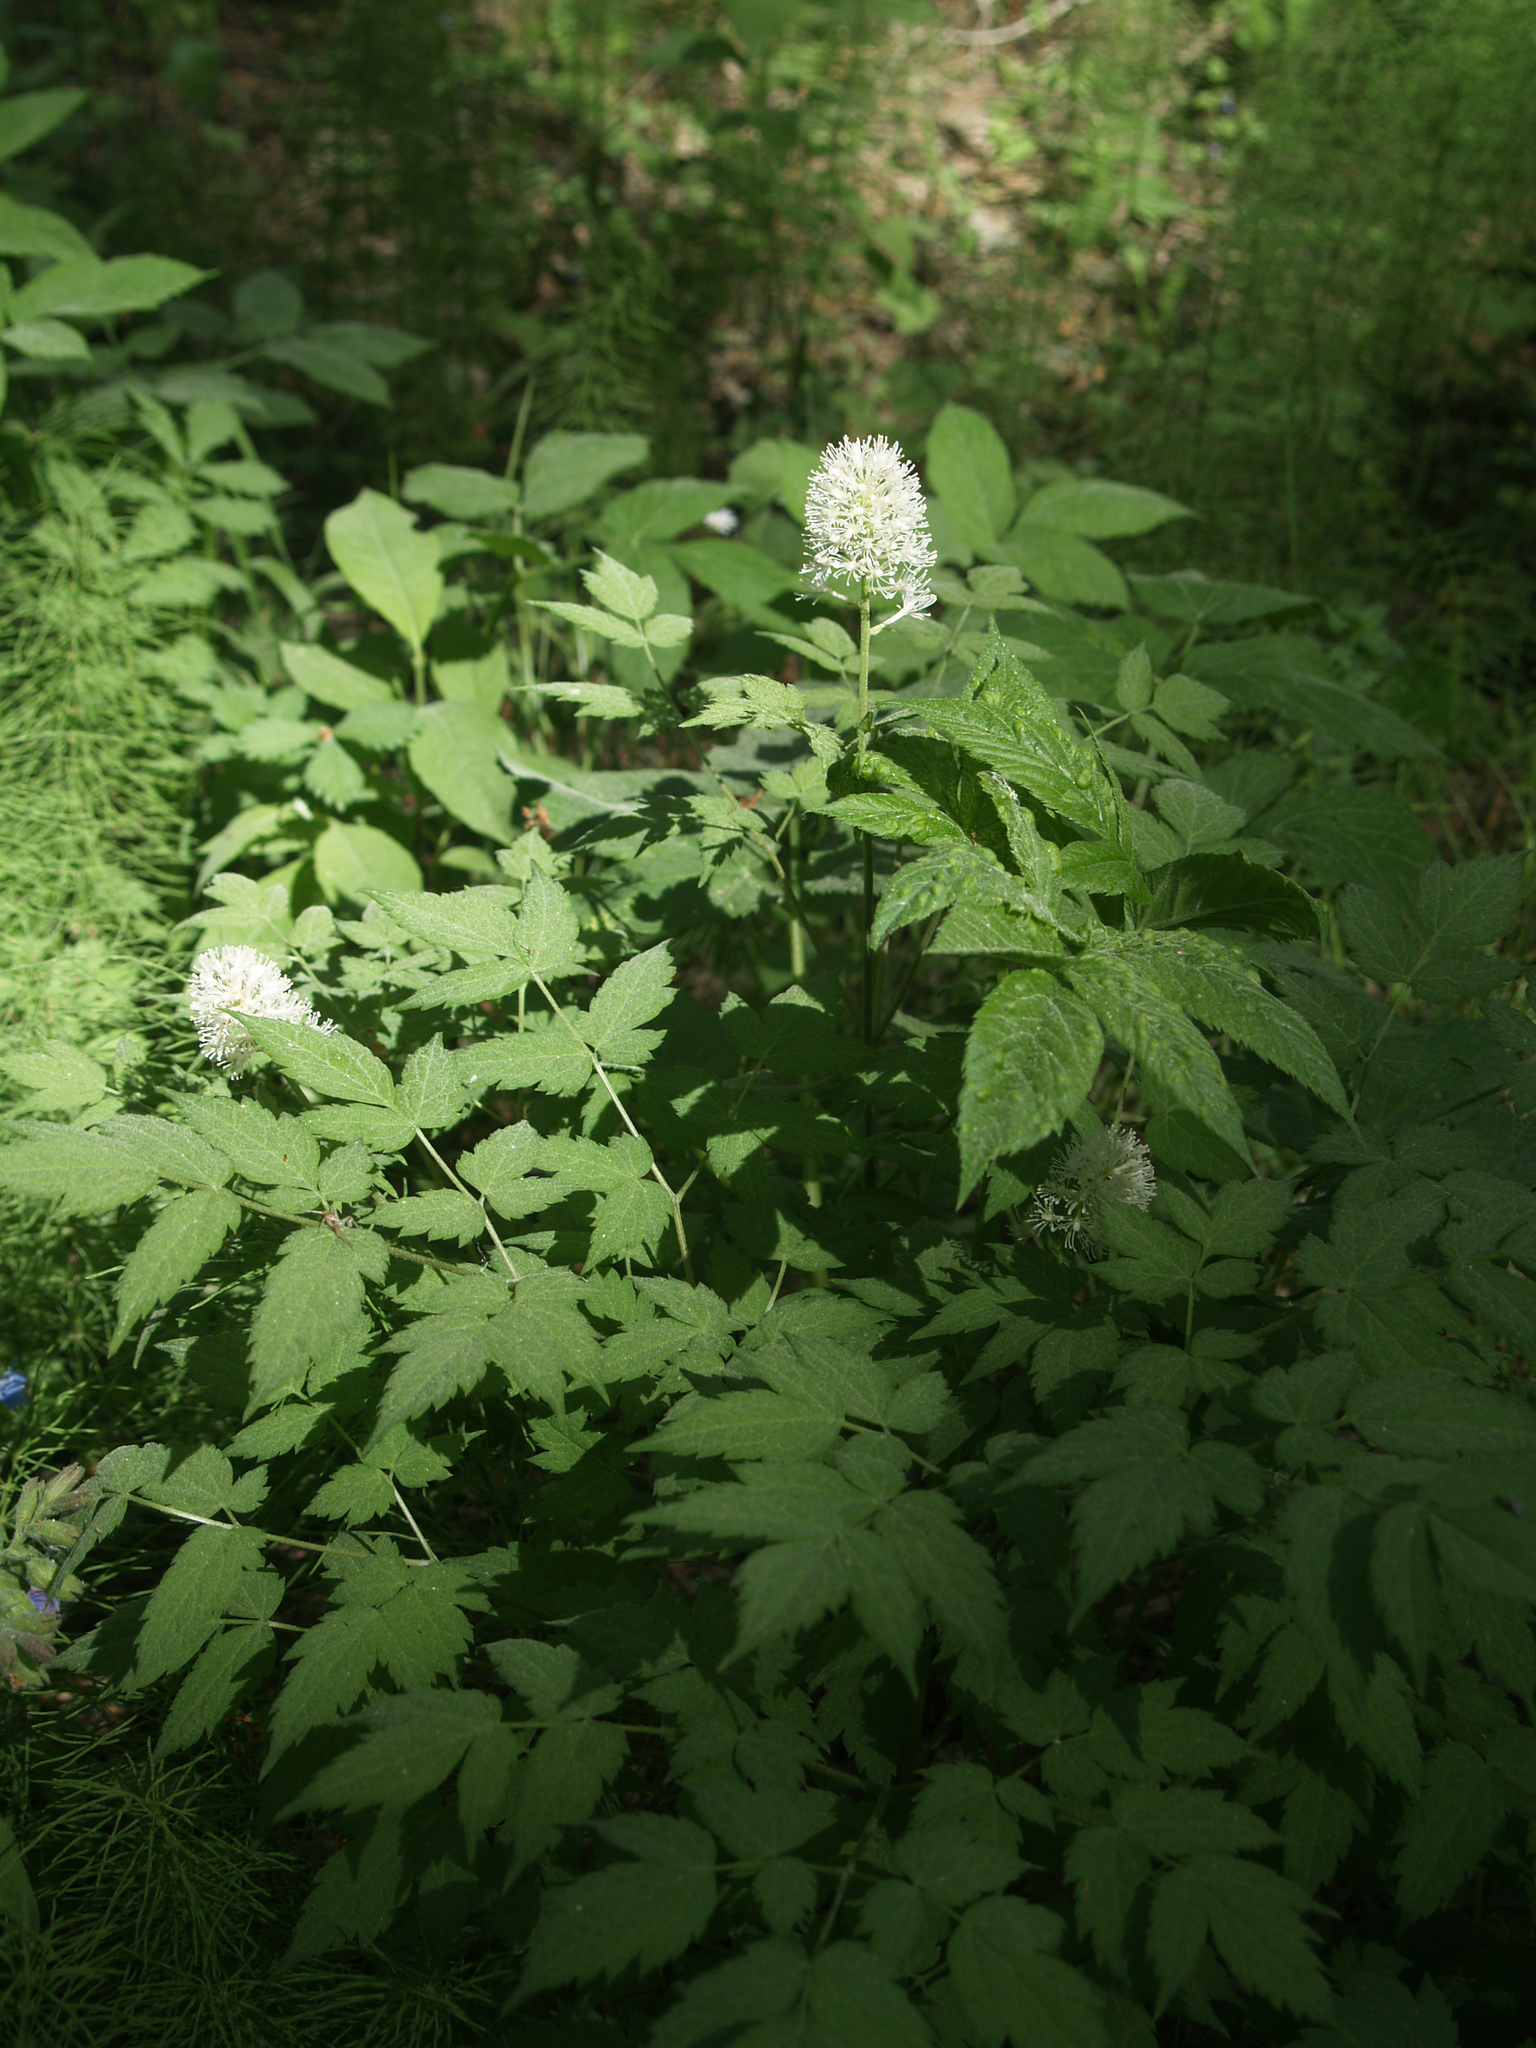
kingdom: Plantae
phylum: Tracheophyta
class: Magnoliopsida
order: Ranunculales
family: Ranunculaceae
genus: Actaea
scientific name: Actaea erythrocarpa
